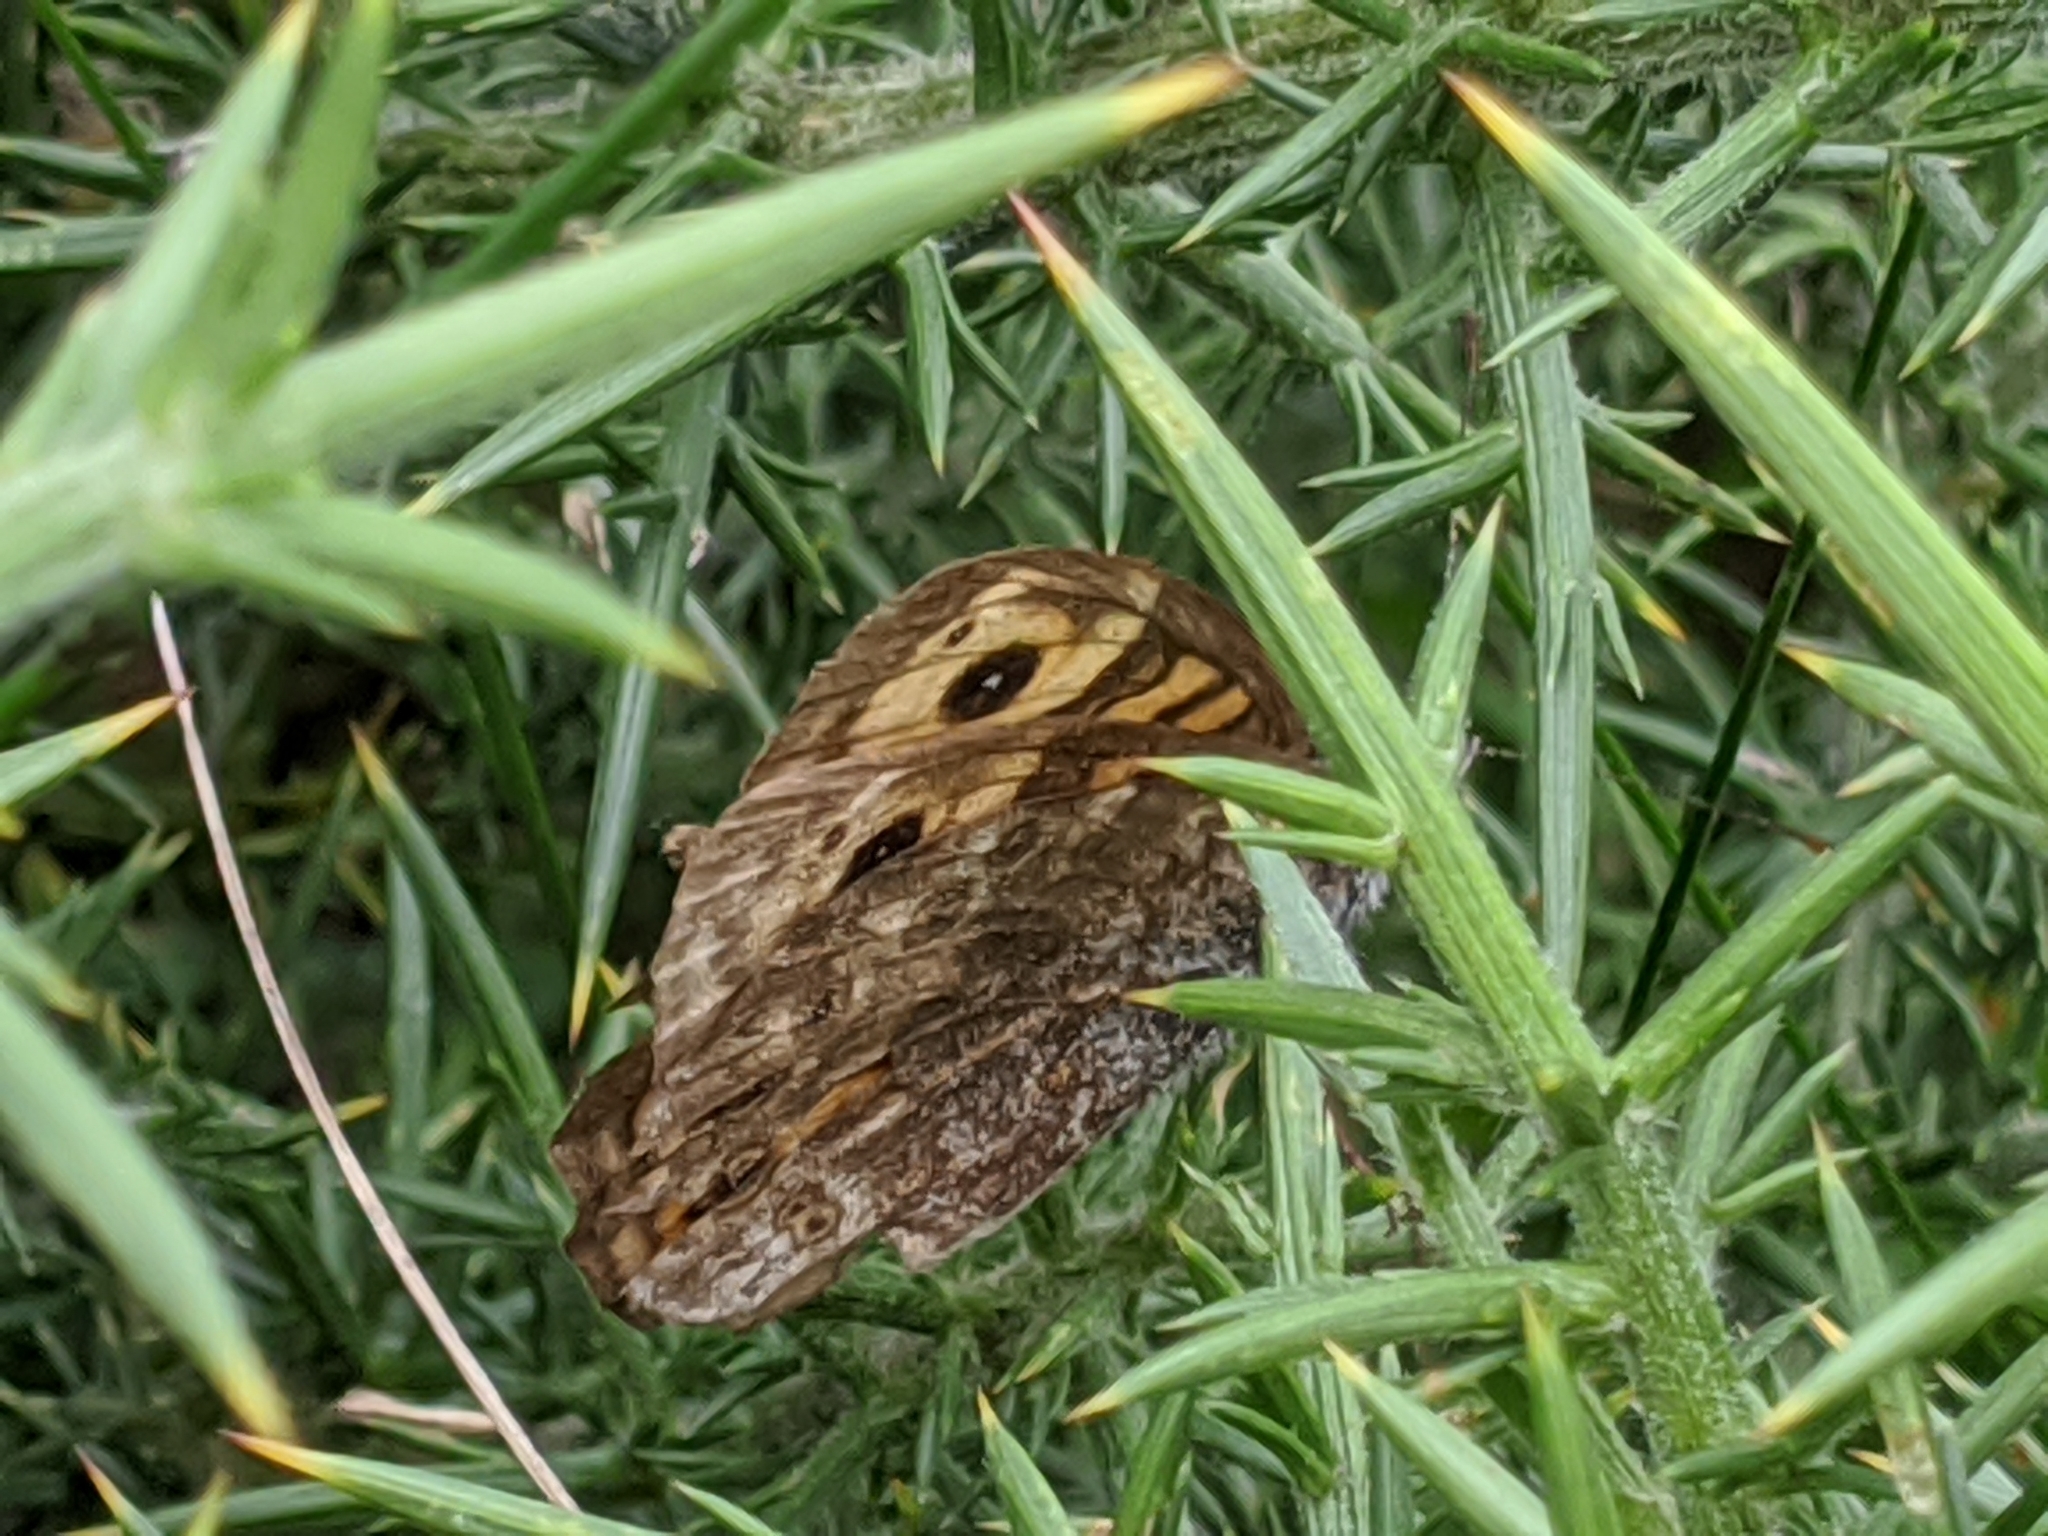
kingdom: Animalia
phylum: Arthropoda
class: Insecta
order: Lepidoptera
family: Nymphalidae
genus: Pararge
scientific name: Pararge Lasiommata megera
